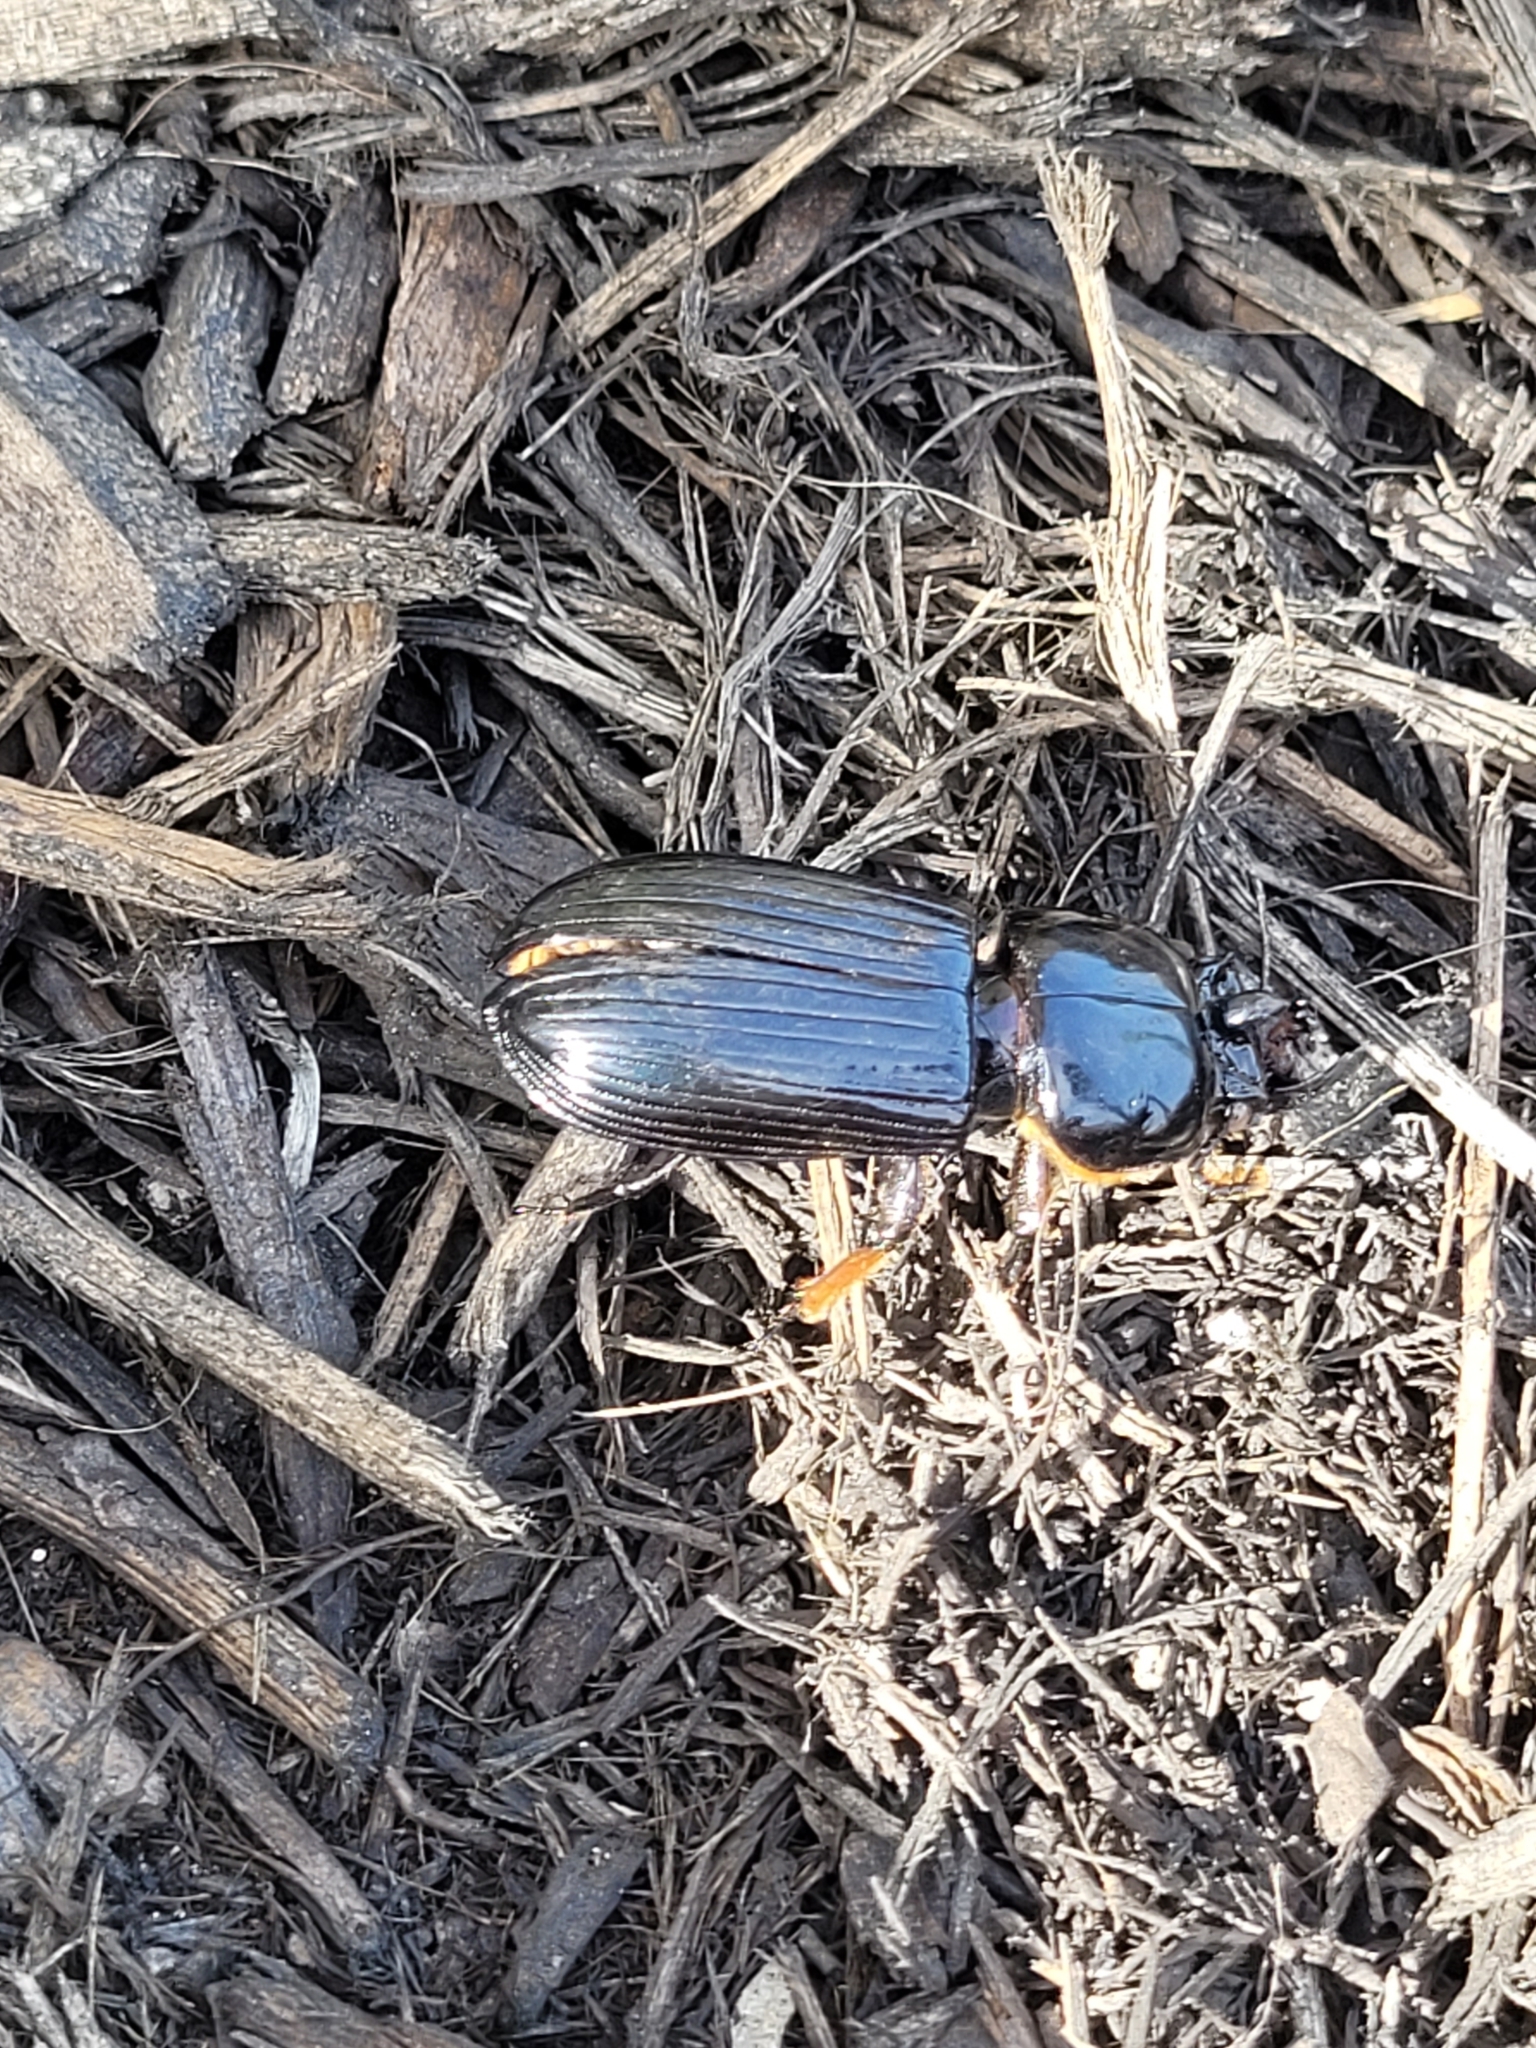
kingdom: Animalia
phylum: Arthropoda
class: Insecta
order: Coleoptera
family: Passalidae
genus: Odontotaenius
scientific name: Odontotaenius disjunctus
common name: Patent leather beetle
